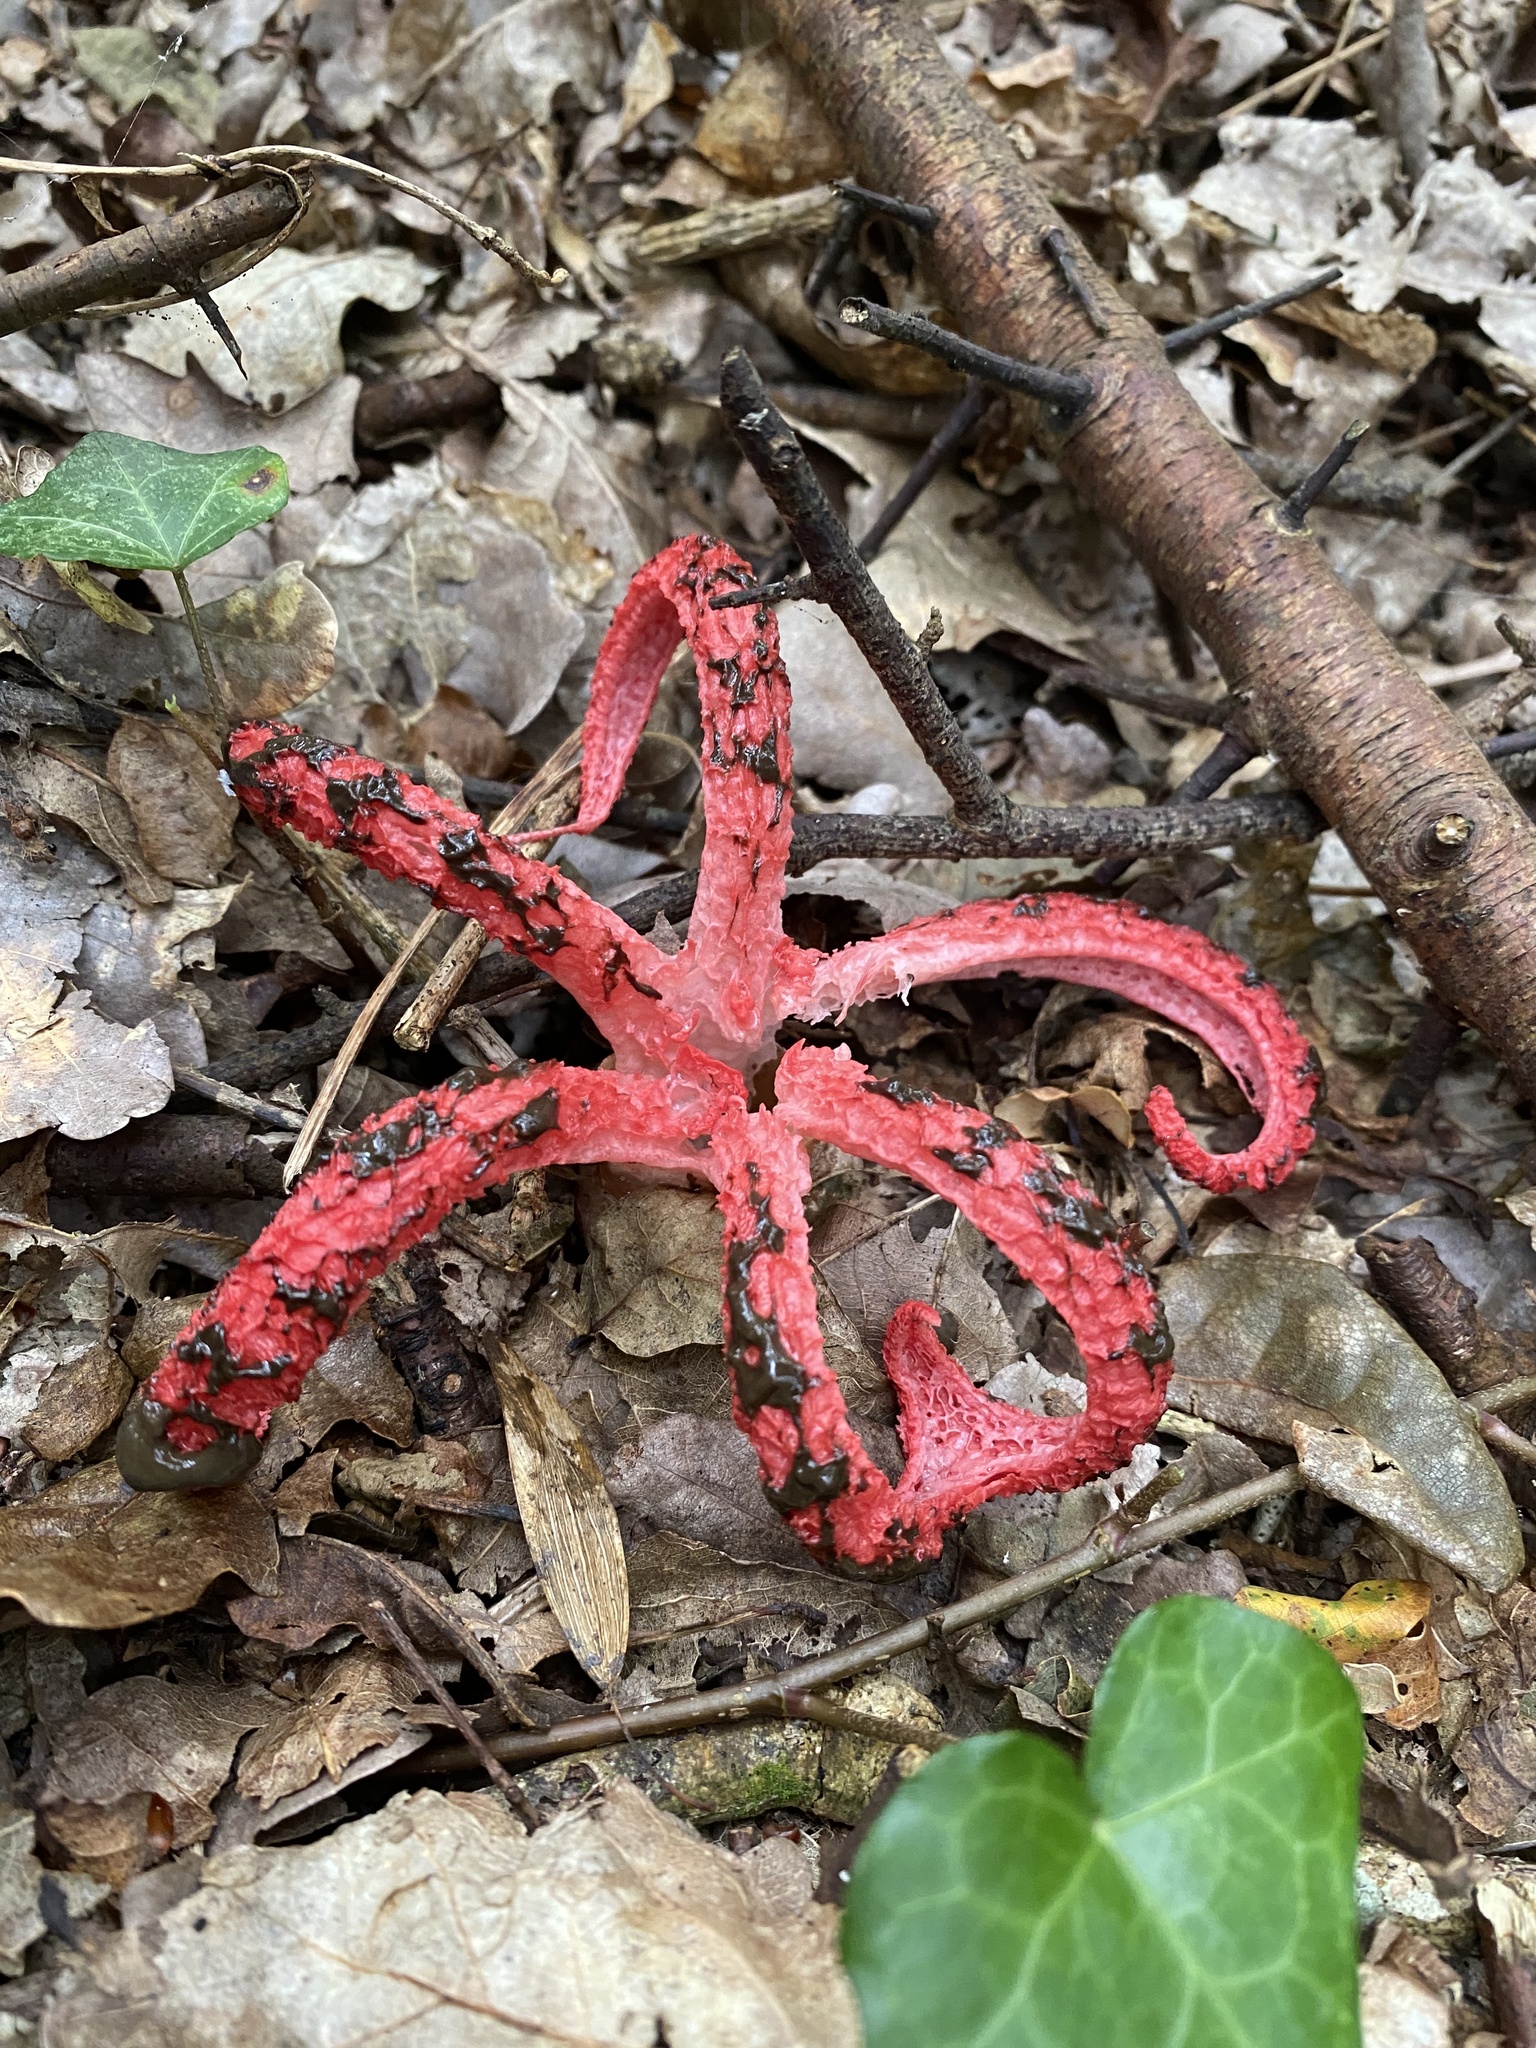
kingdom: Fungi
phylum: Basidiomycota
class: Agaricomycetes
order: Phallales
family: Phallaceae
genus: Clathrus
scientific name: Clathrus archeri
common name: Devil's fingers
